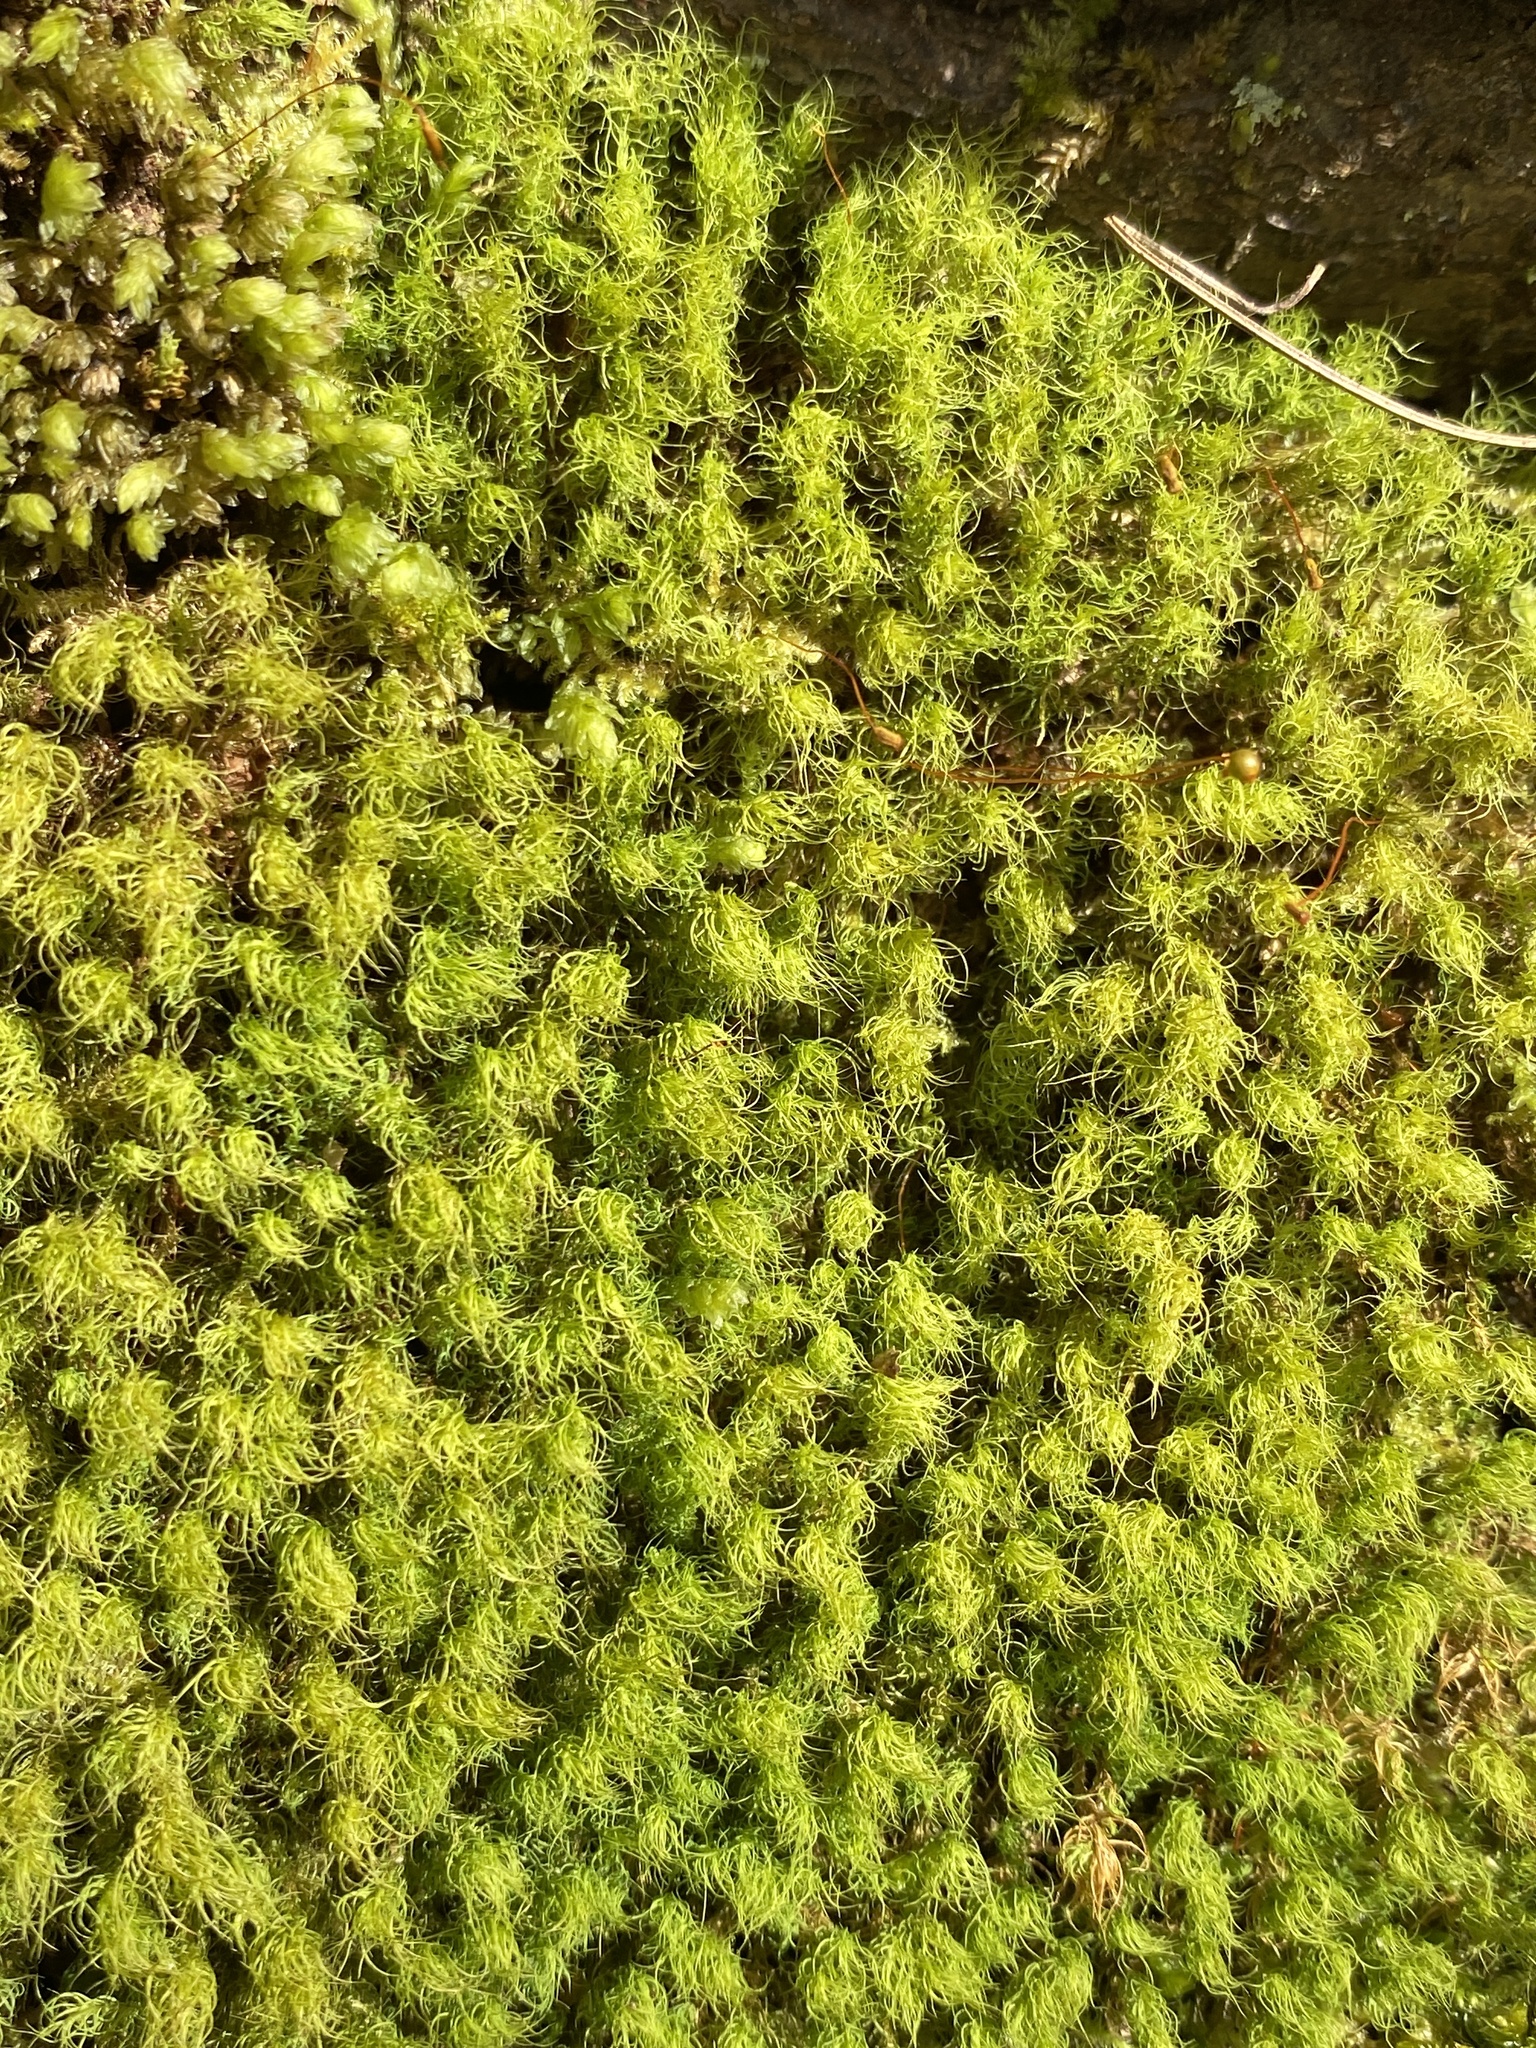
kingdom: Plantae
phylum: Bryophyta
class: Bryopsida
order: Bartramiales
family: Bartramiaceae
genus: Bartramia
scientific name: Bartramia ithyphylla
